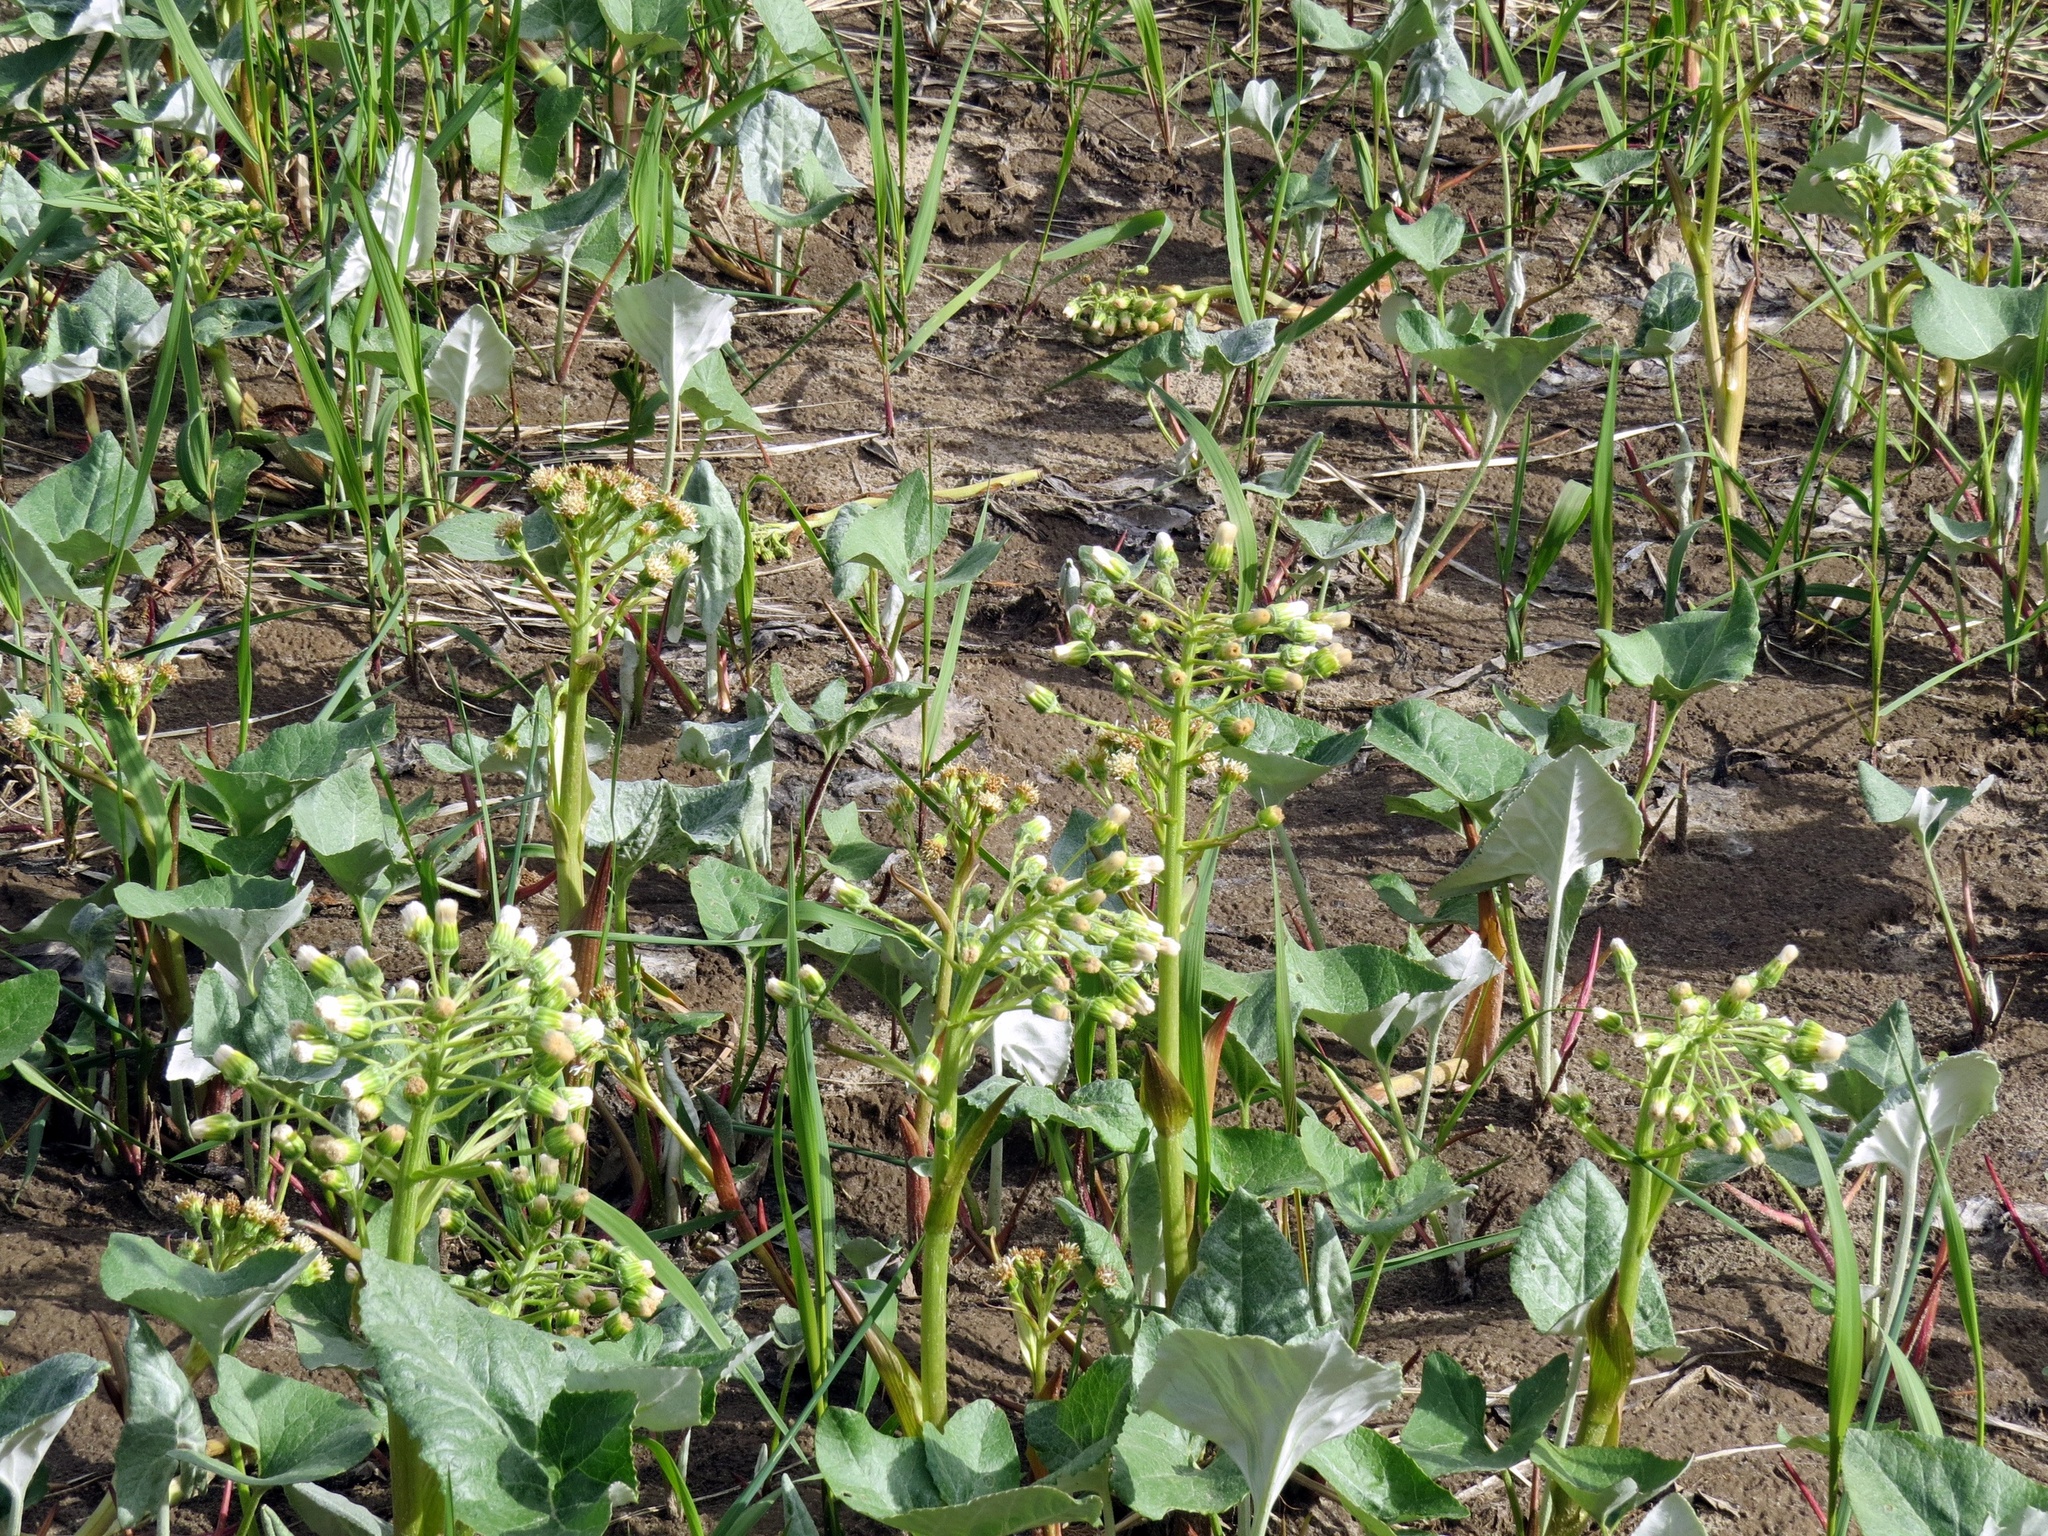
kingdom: Plantae
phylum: Tracheophyta
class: Magnoliopsida
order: Asterales
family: Asteraceae
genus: Petasites
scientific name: Petasites spurius
